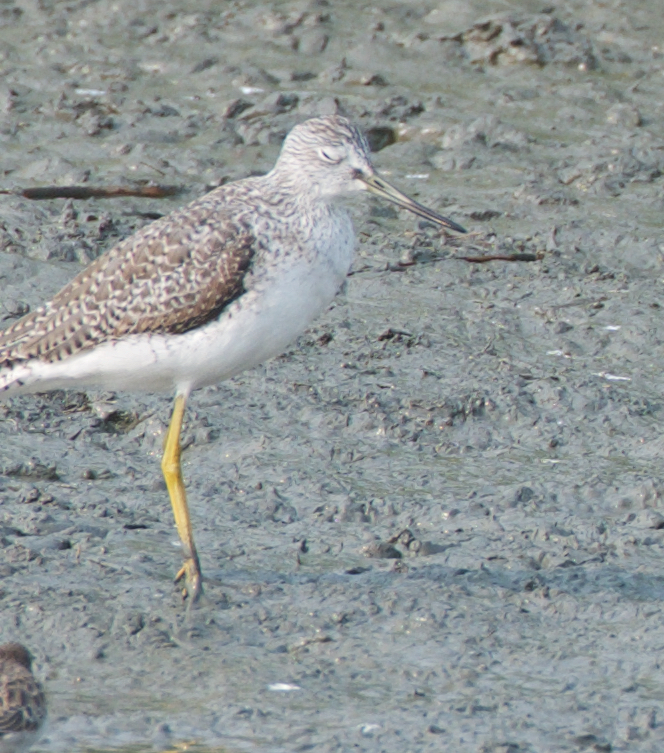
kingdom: Animalia
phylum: Chordata
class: Aves
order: Charadriiformes
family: Scolopacidae
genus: Tringa
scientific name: Tringa melanoleuca
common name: Greater yellowlegs
